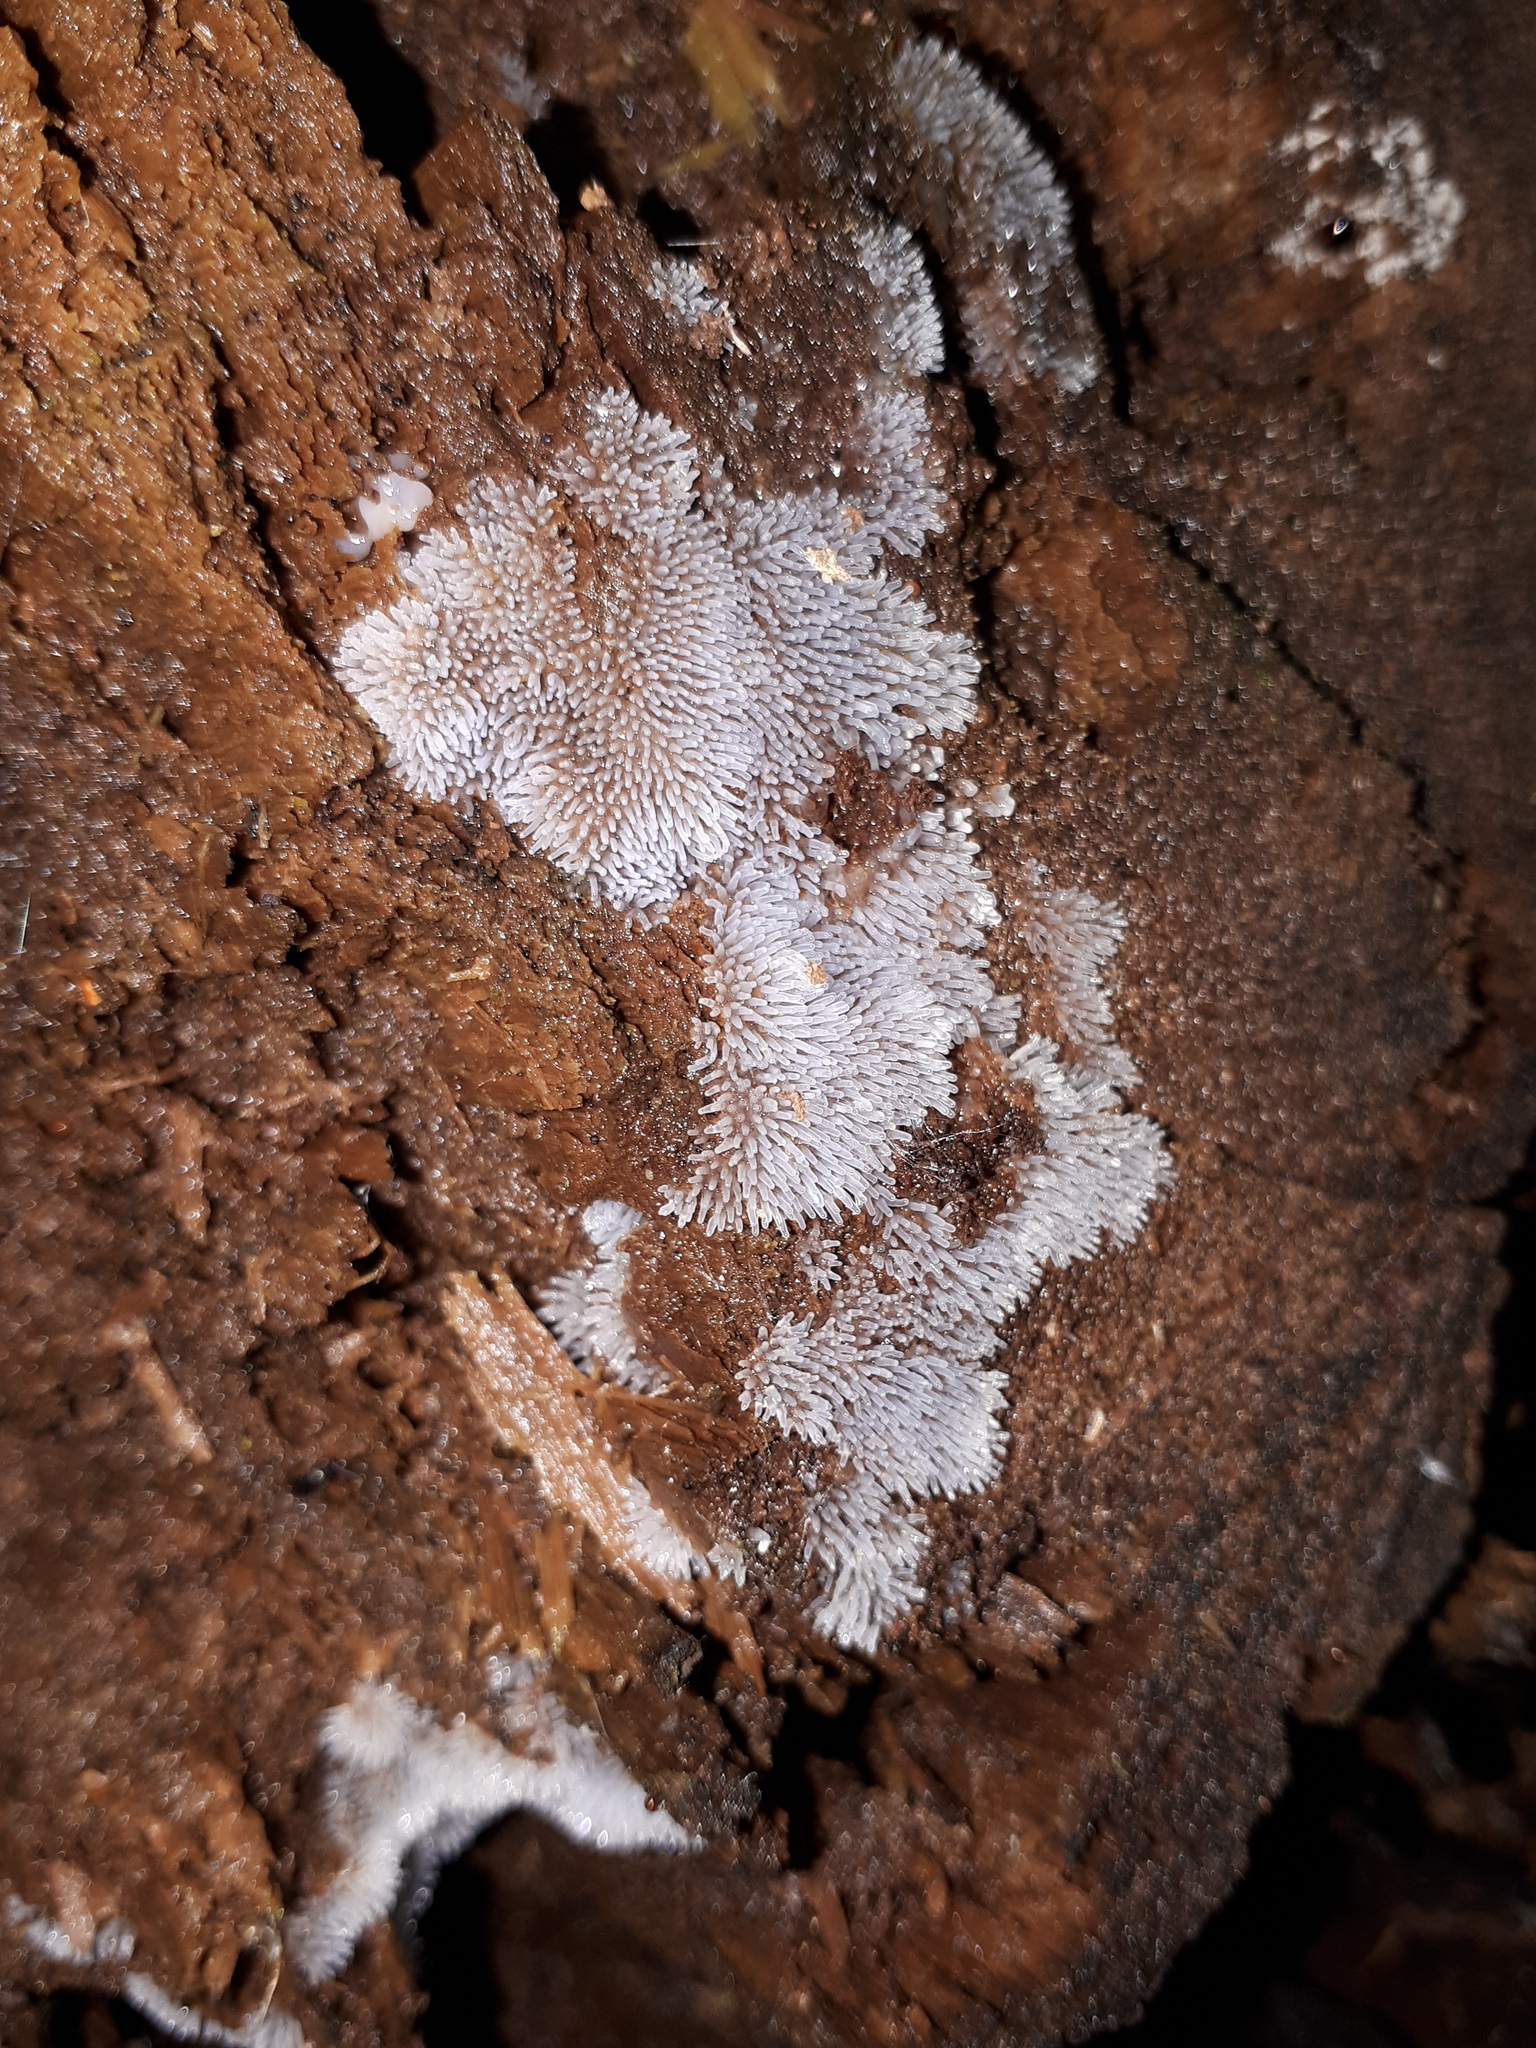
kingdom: Protozoa
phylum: Mycetozoa
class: Protosteliomycetes
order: Ceratiomyxales
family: Ceratiomyxaceae
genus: Ceratiomyxa
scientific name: Ceratiomyxa fruticulosa
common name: Honeycomb coral slime mold
